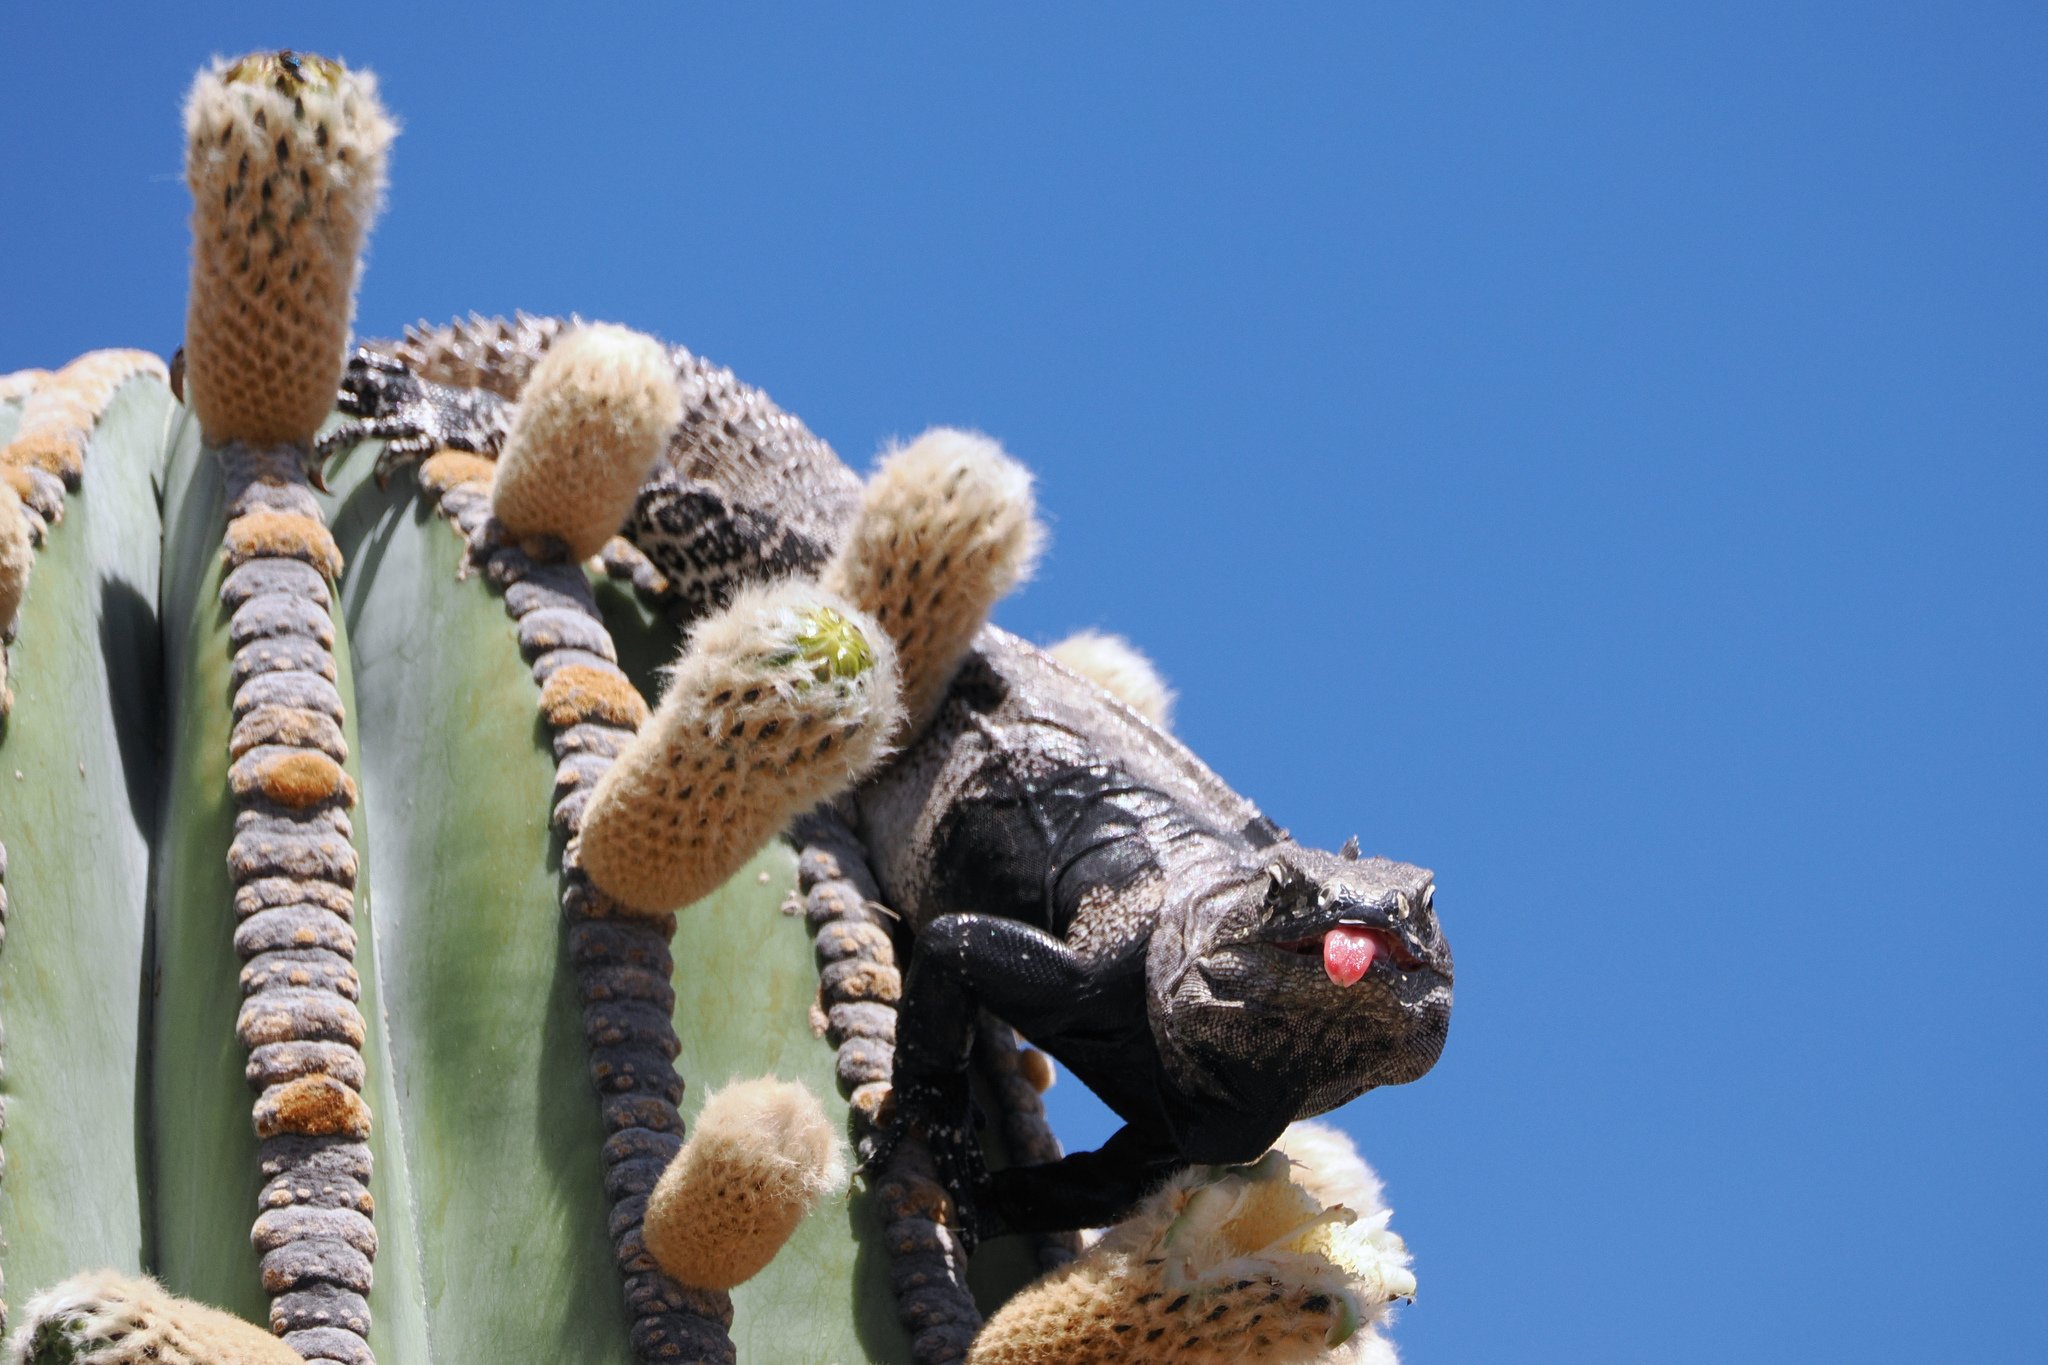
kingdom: Animalia
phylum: Chordata
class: Squamata
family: Iguanidae
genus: Ctenosaura
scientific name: Ctenosaura conspicuosa
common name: San esteban spinytail iguana
